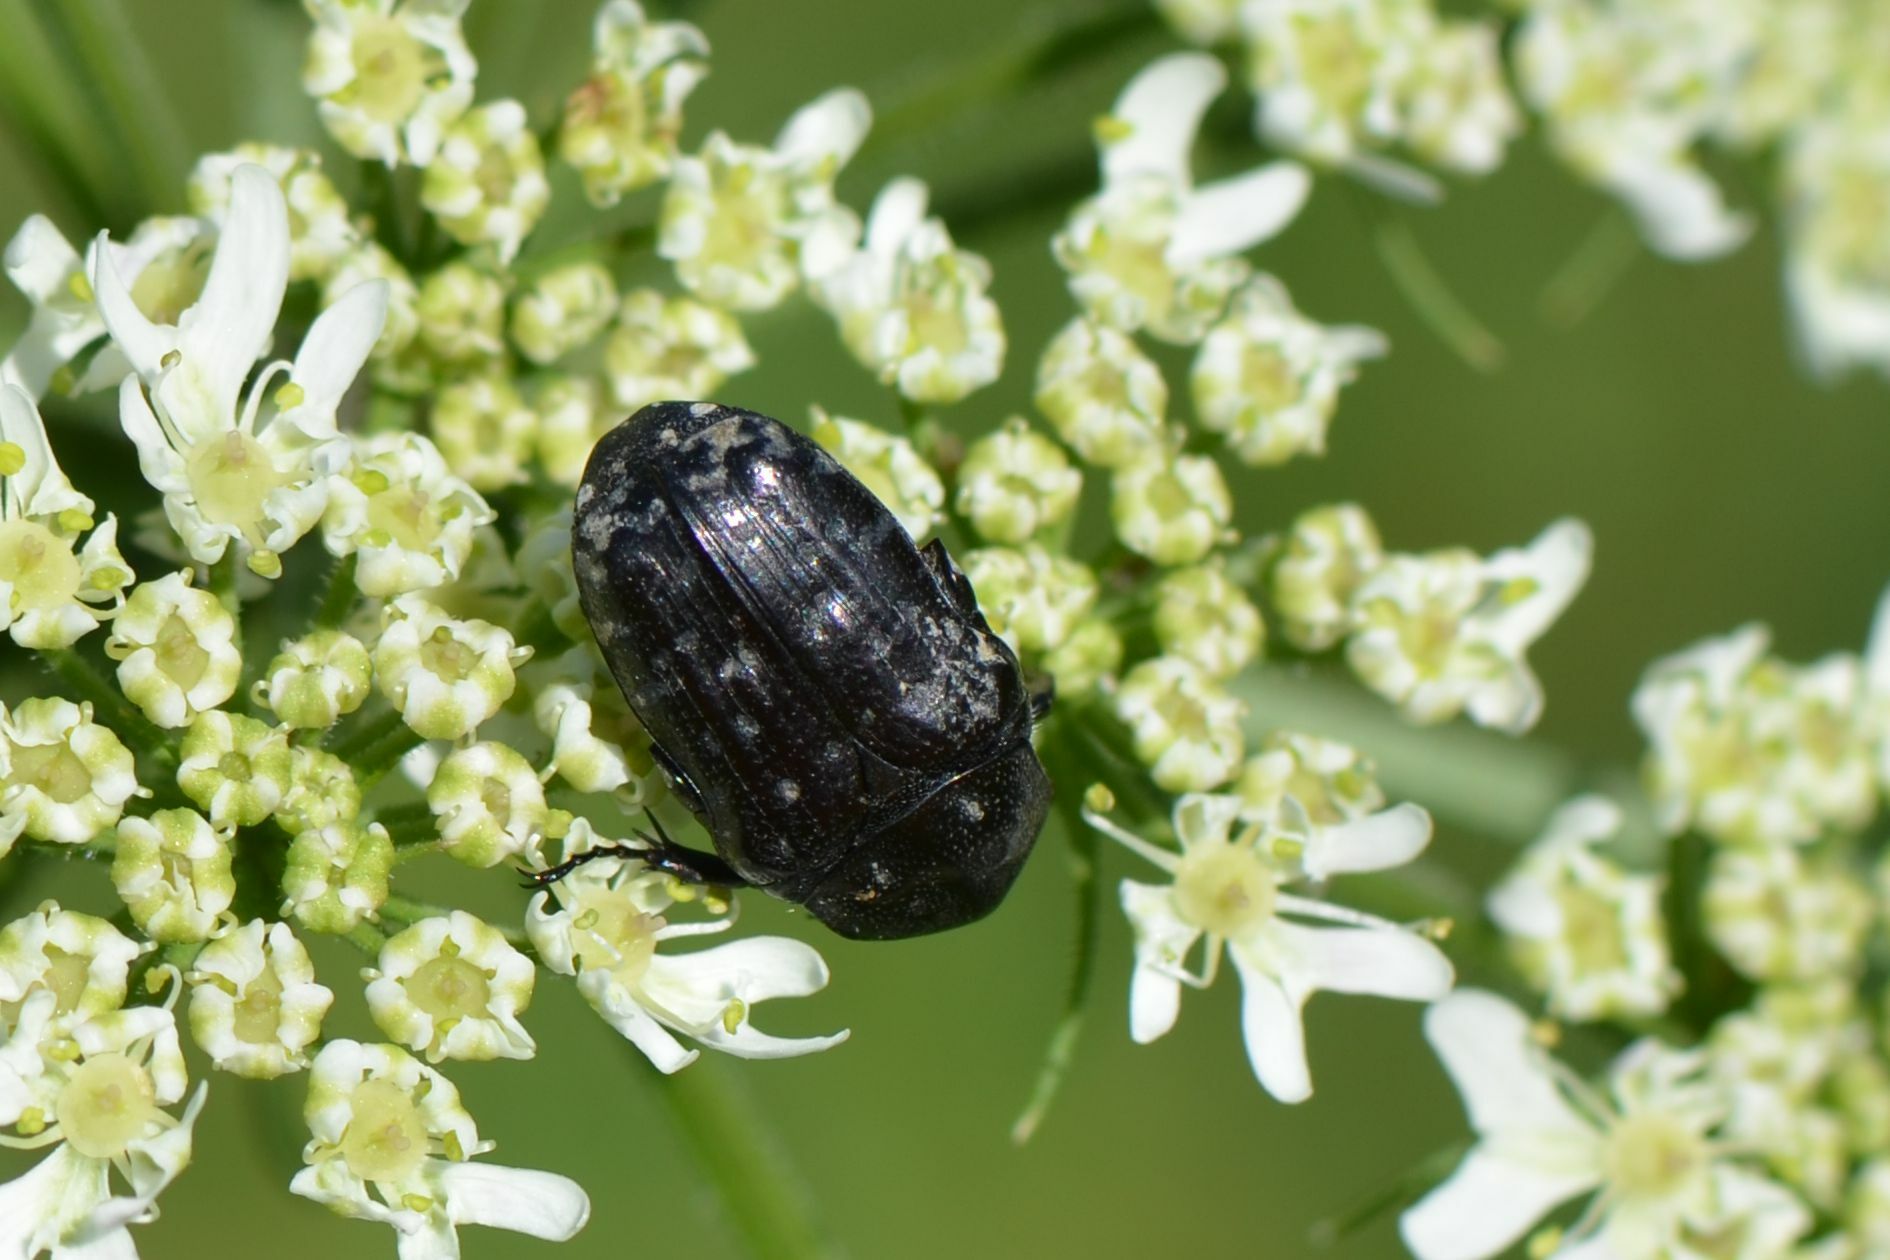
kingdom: Animalia
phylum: Arthropoda
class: Insecta
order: Coleoptera
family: Scarabaeidae
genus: Oxythyrea
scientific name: Oxythyrea funesta
